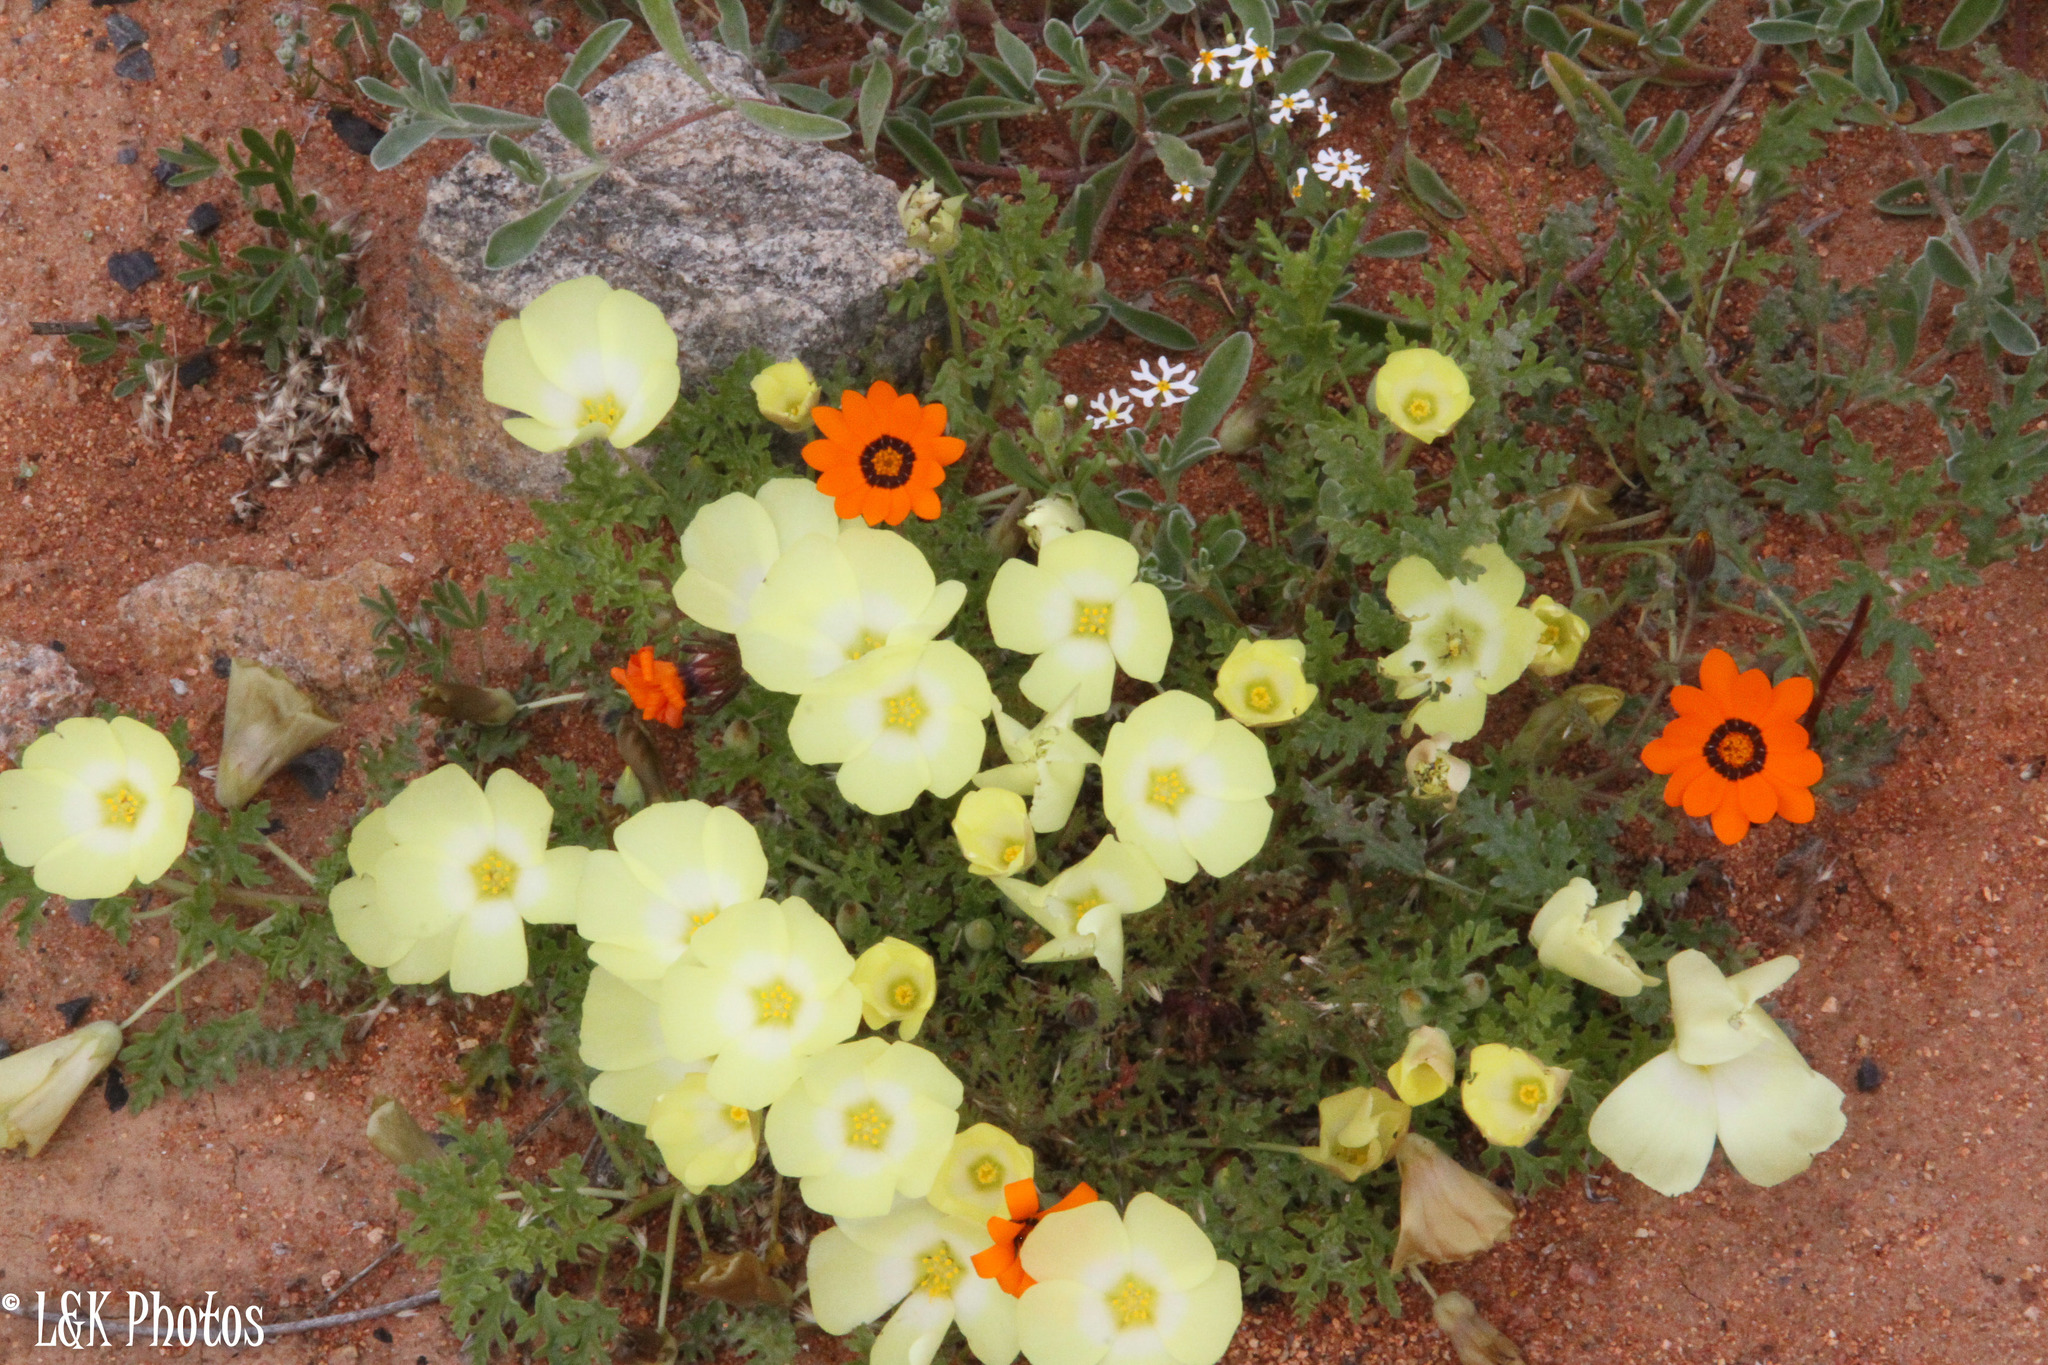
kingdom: Plantae
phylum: Tracheophyta
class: Magnoliopsida
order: Malvales
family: Neuradaceae
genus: Grielum
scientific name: Grielum humifusum
